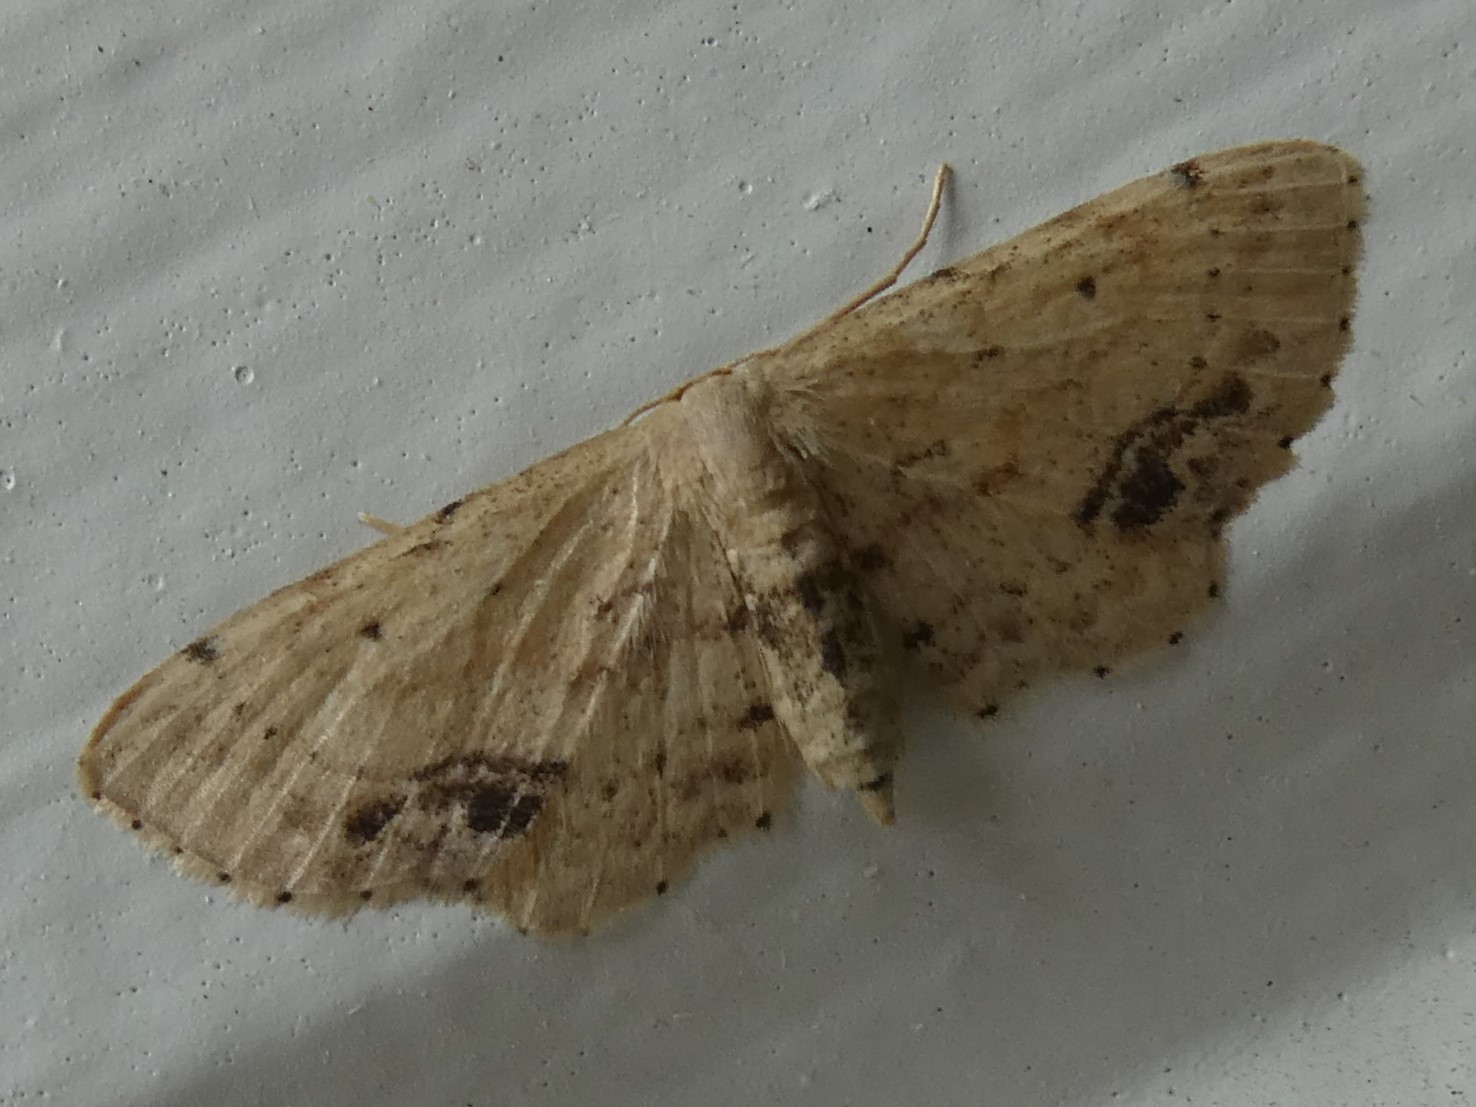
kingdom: Animalia
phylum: Arthropoda
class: Insecta
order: Lepidoptera
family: Geometridae
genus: Idaea
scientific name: Idaea dimidiata
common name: Single-dotted wave
